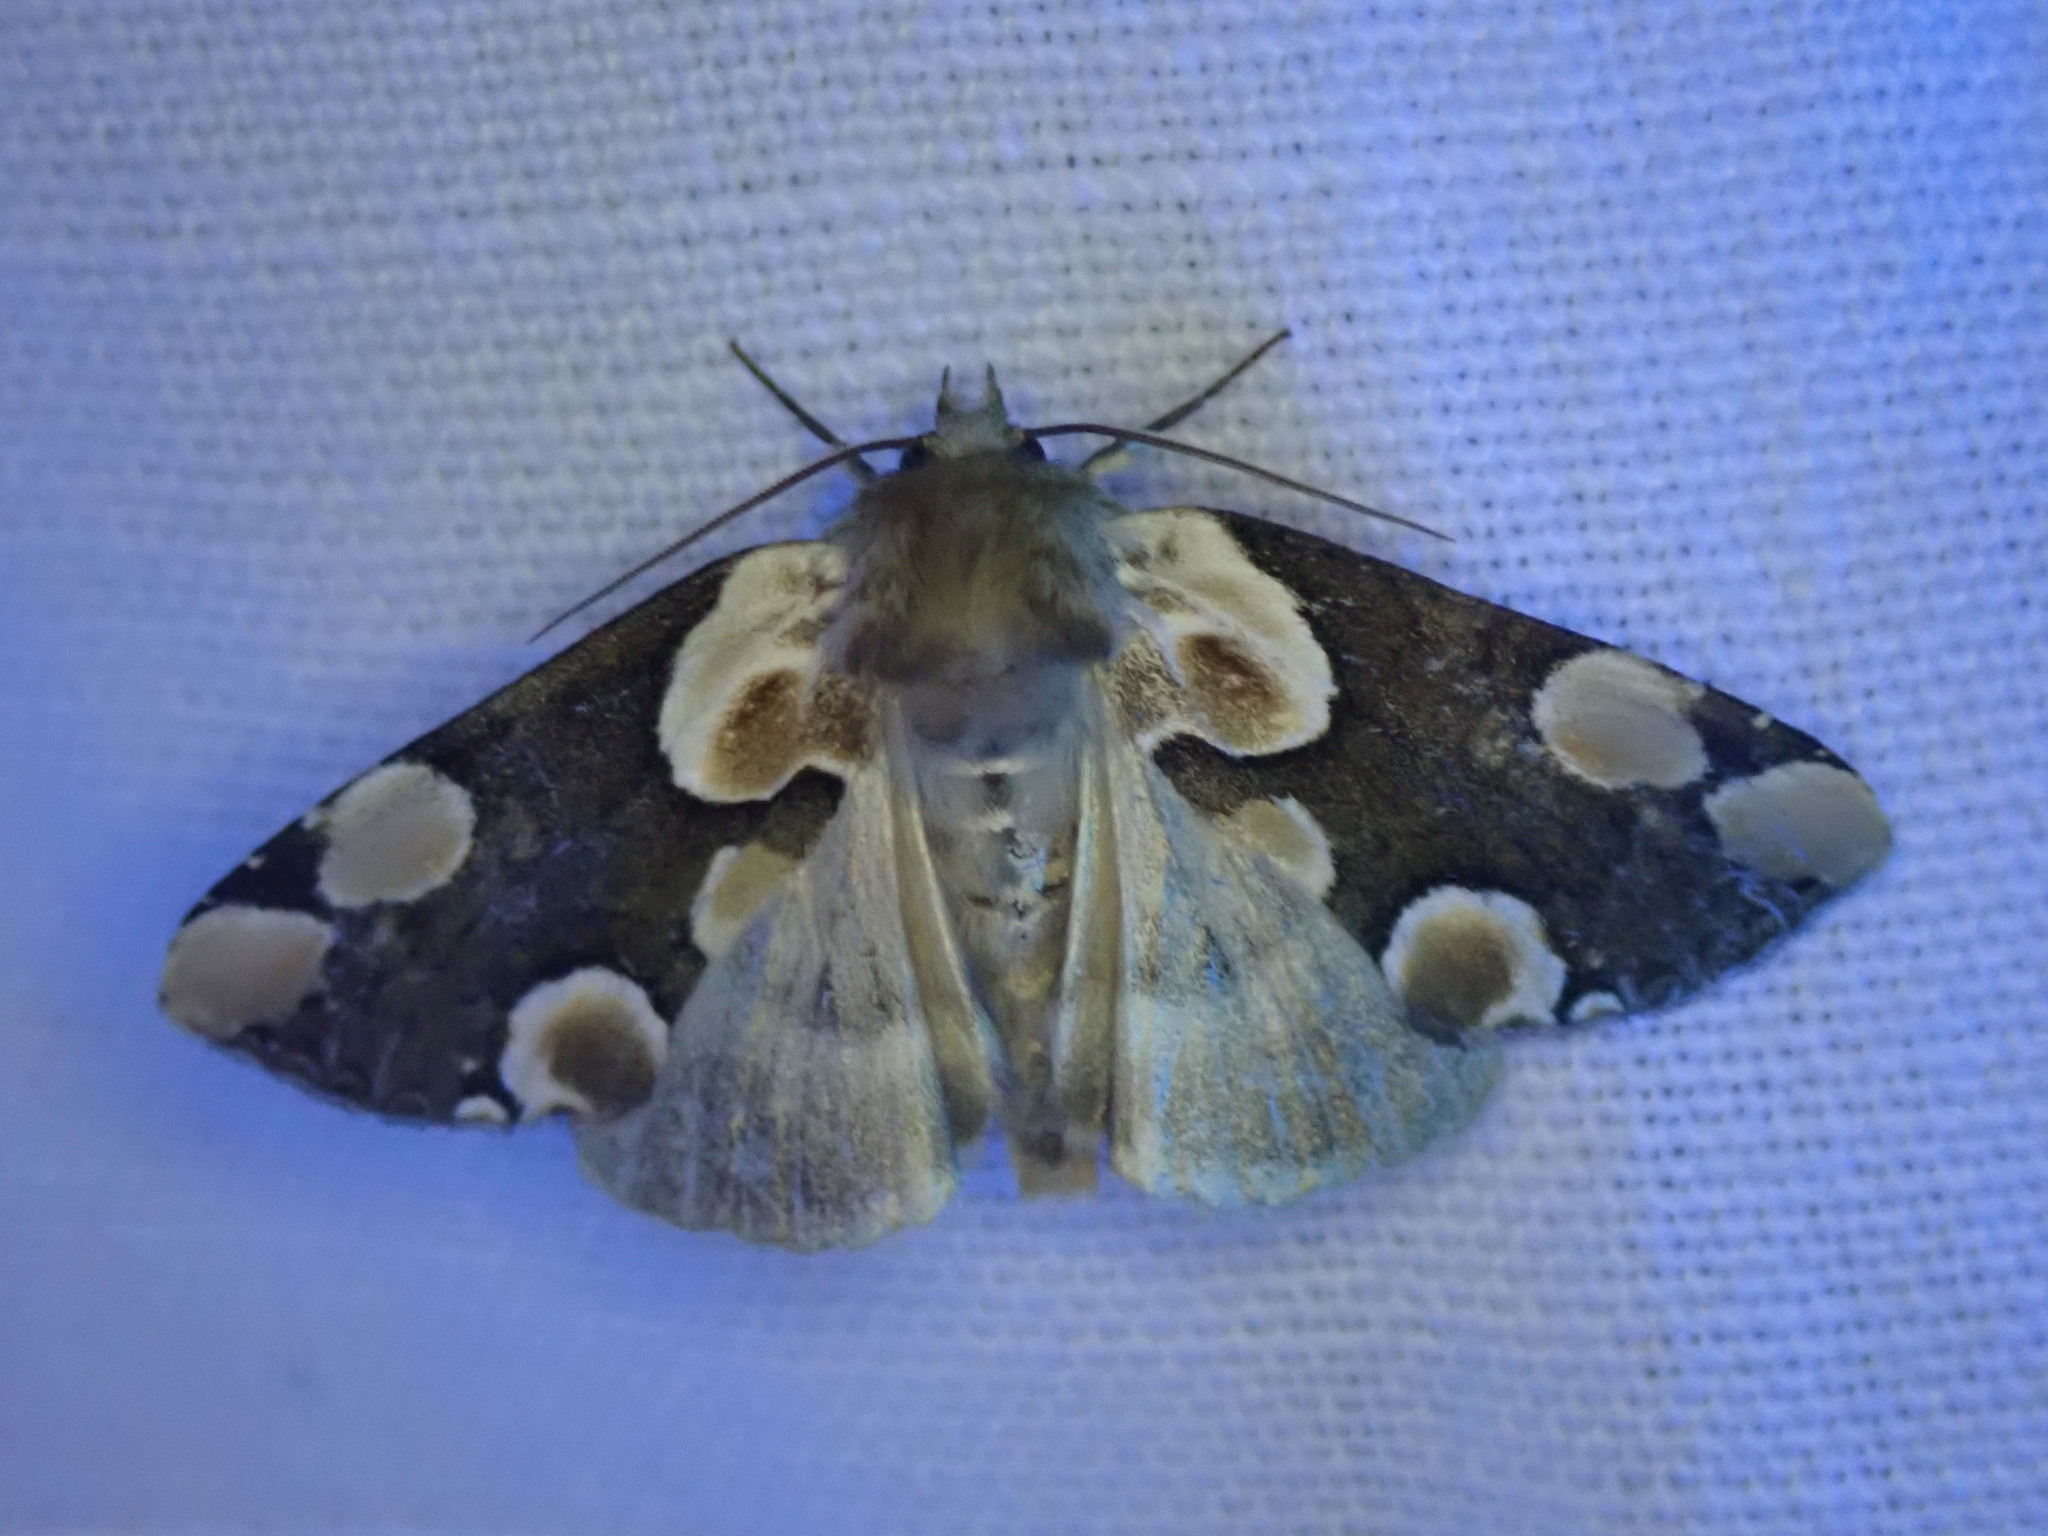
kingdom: Animalia
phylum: Arthropoda
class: Insecta
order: Lepidoptera
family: Drepanidae
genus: Thyatira
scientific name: Thyatira batis
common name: Peach blossom
